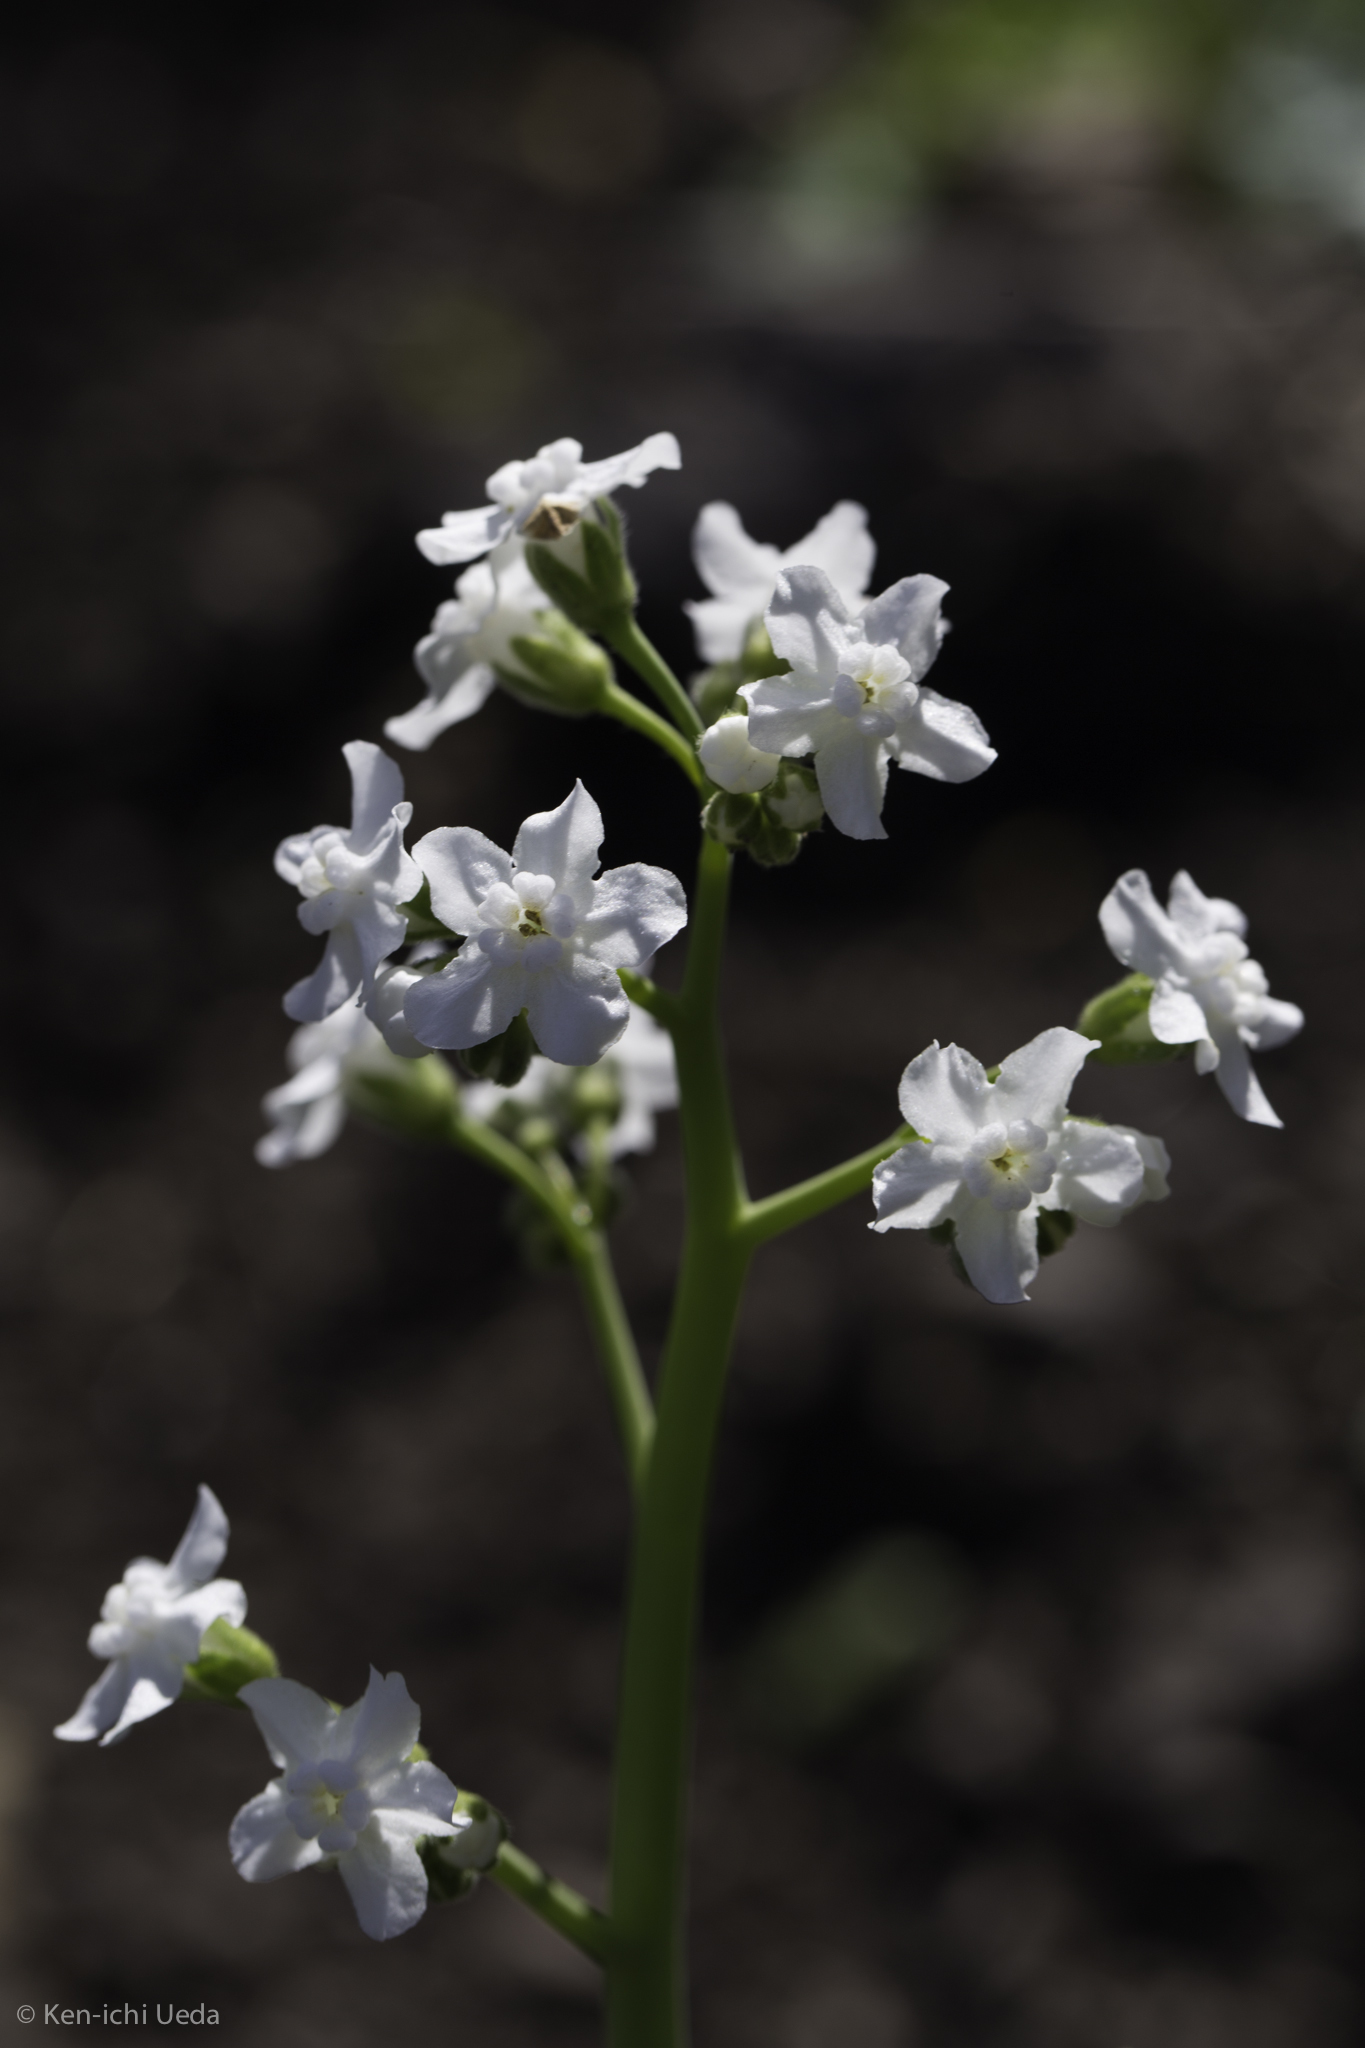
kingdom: Plantae
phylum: Tracheophyta
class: Magnoliopsida
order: Boraginales
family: Boraginaceae
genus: Adelinia
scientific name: Adelinia grande
